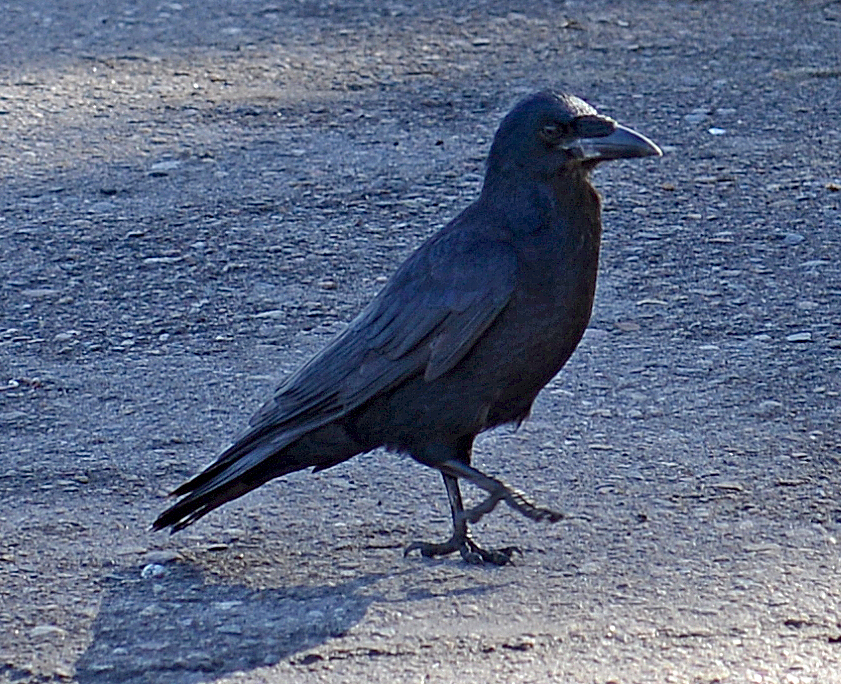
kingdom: Animalia
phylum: Chordata
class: Aves
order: Passeriformes
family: Corvidae
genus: Corvus
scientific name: Corvus frugilegus
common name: Rook
